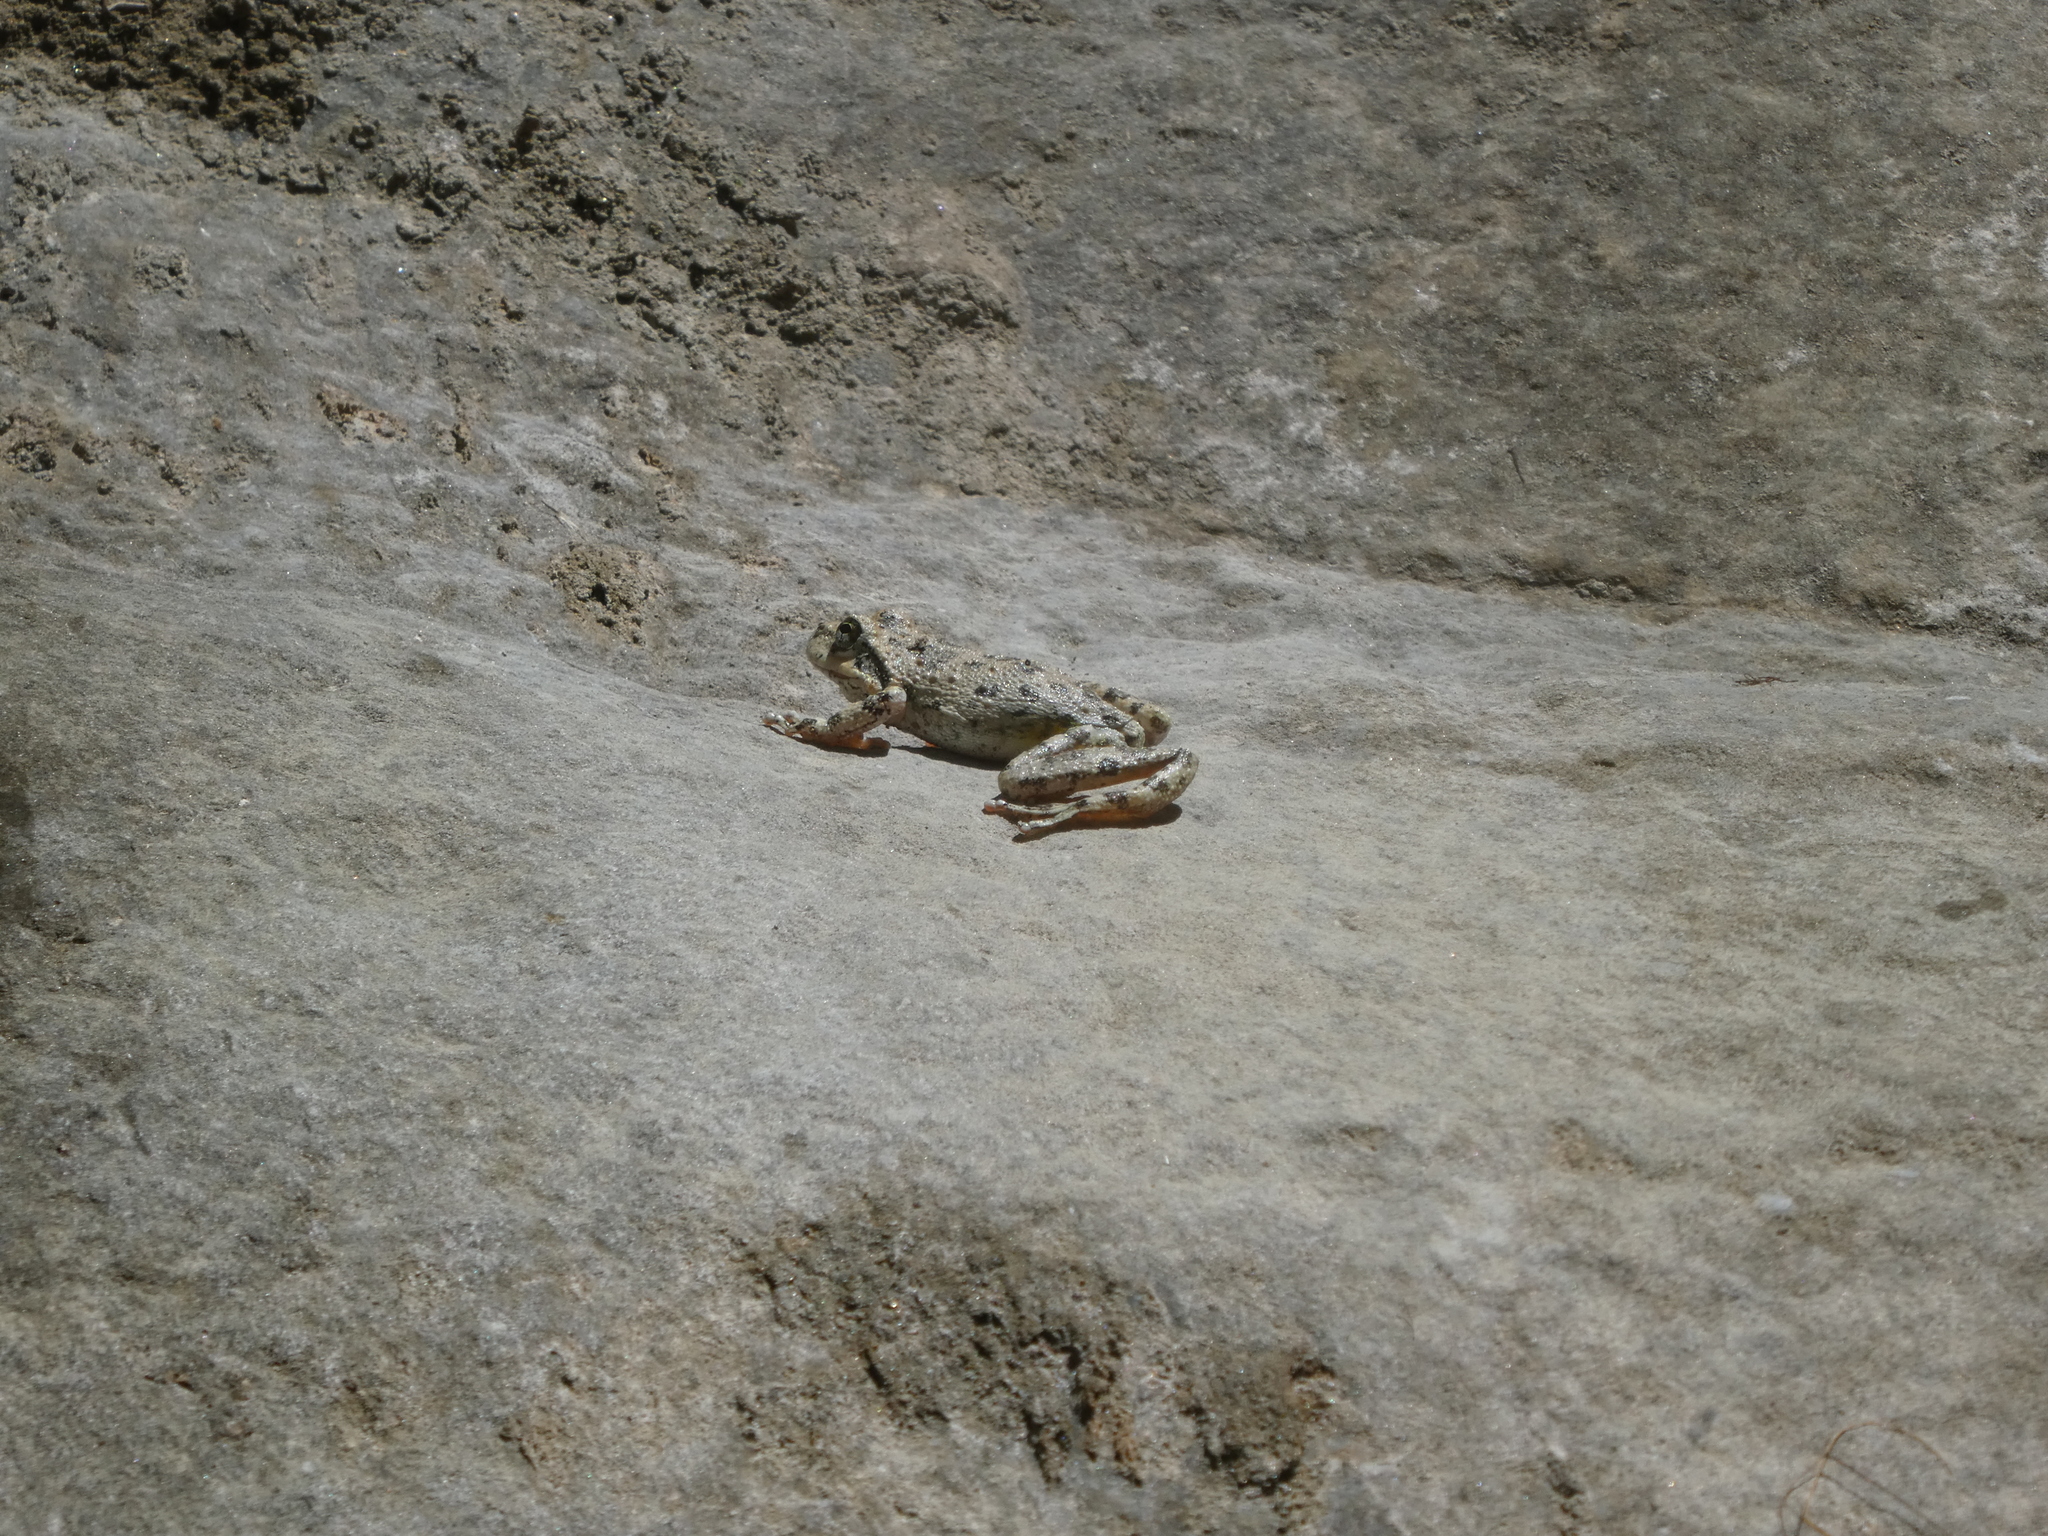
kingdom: Animalia
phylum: Chordata
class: Amphibia
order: Anura
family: Hylidae
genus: Pseudacris
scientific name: Pseudacris cadaverina
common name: California chorus frog
